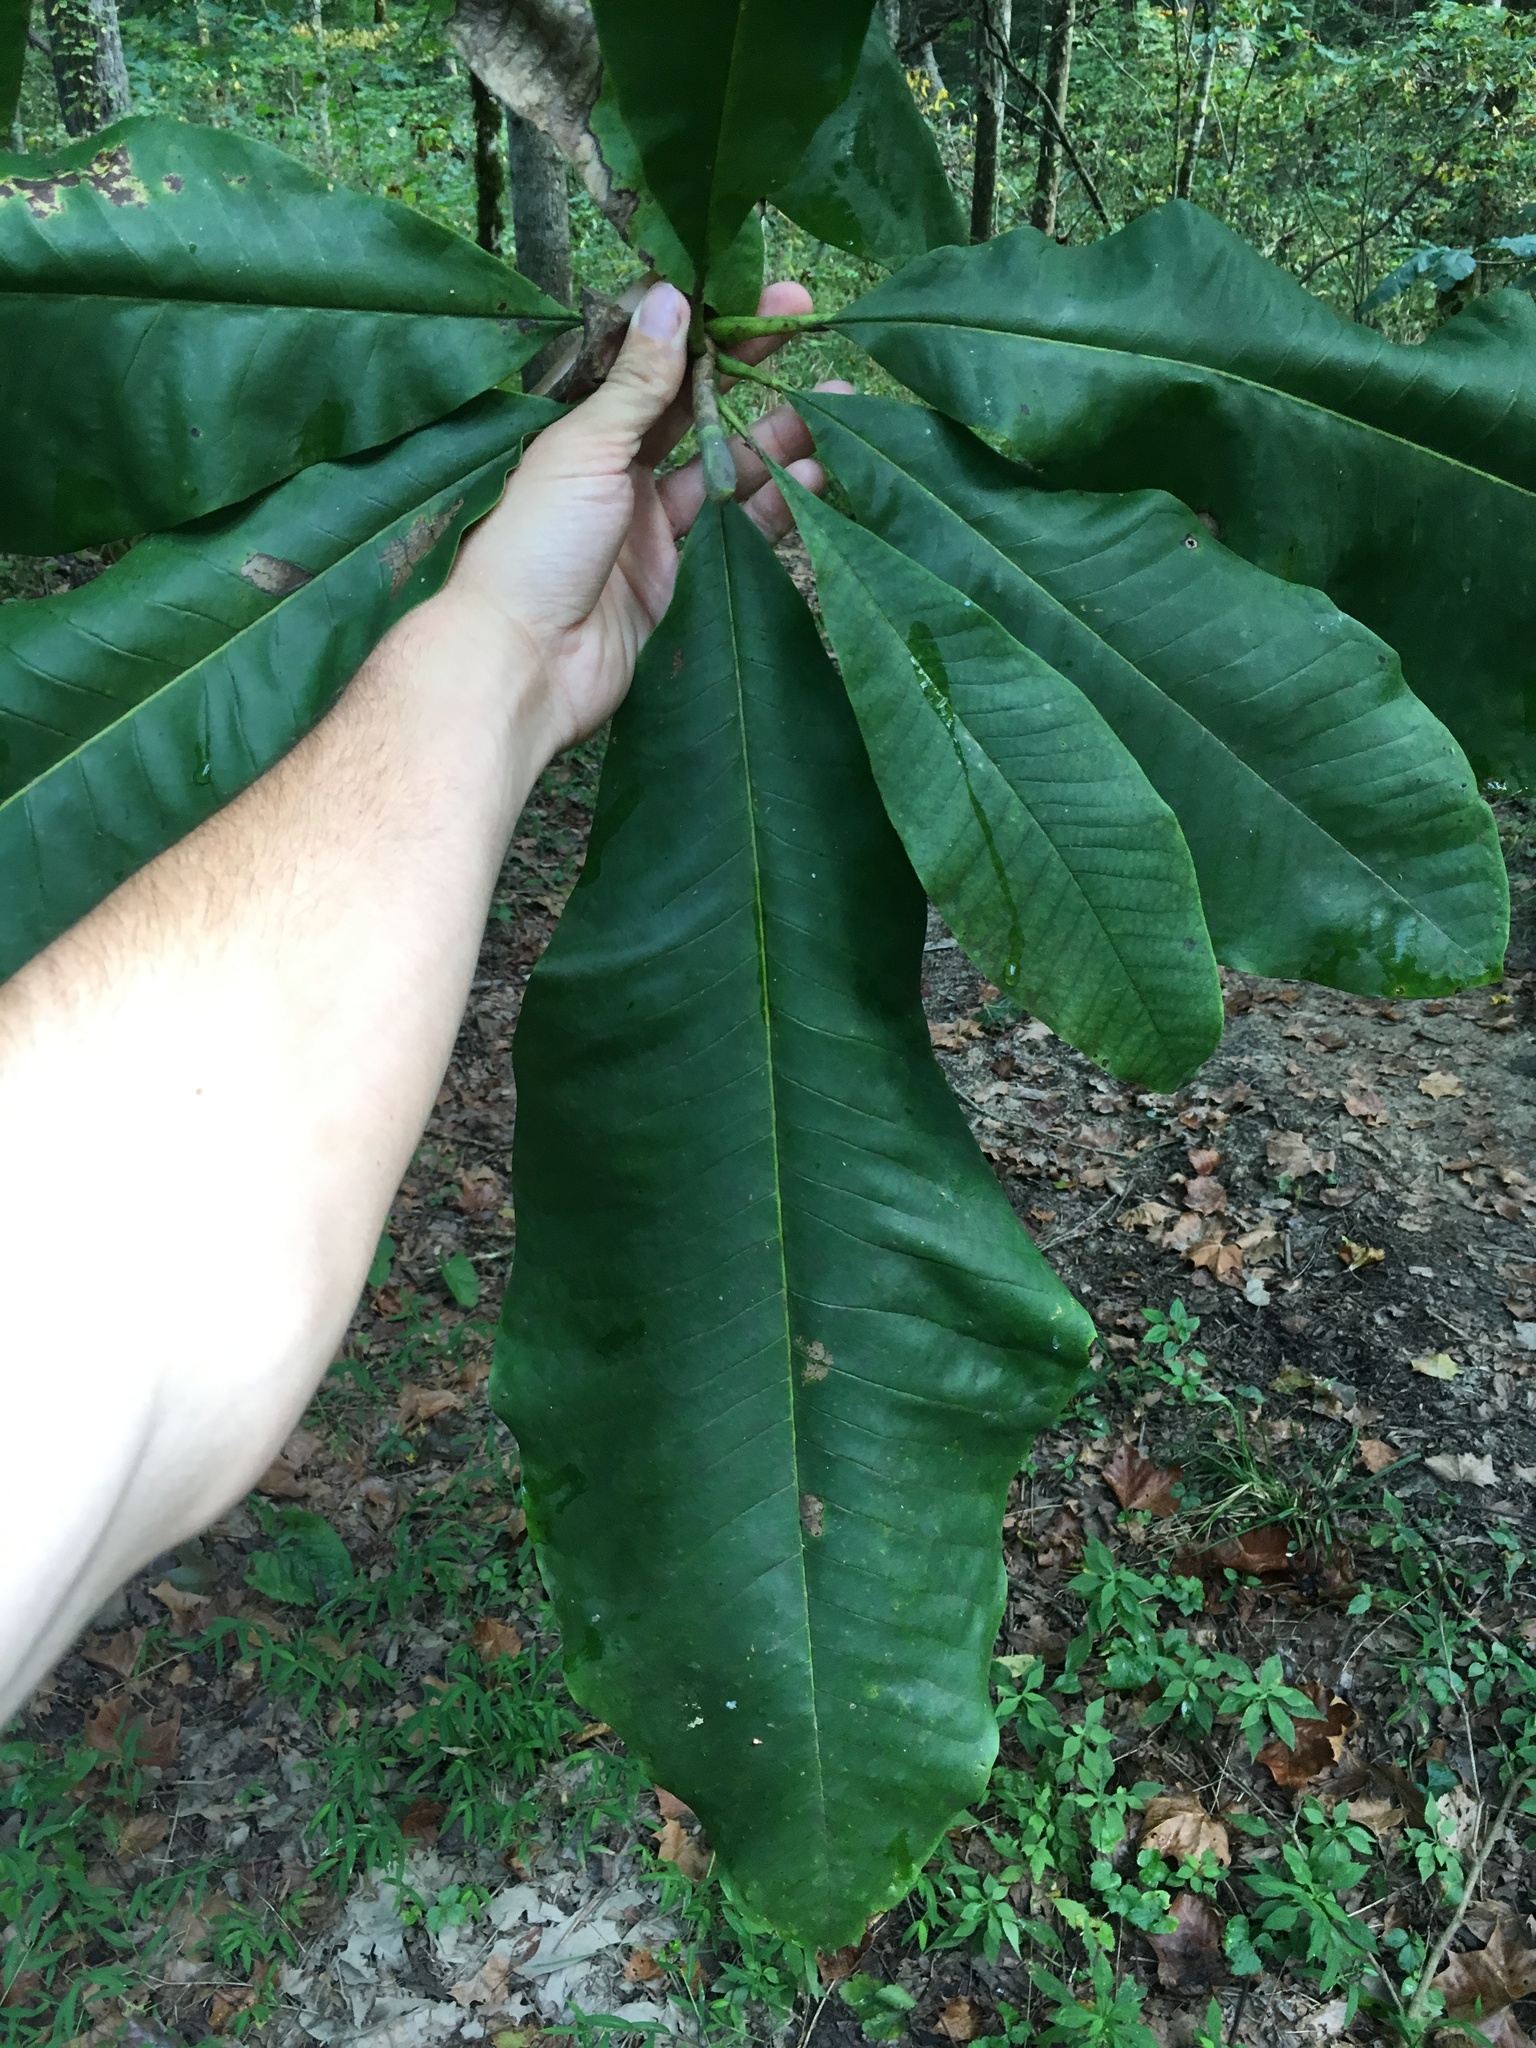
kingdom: Plantae
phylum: Tracheophyta
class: Magnoliopsida
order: Magnoliales
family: Magnoliaceae
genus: Magnolia
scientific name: Magnolia tripetala
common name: Umbrella magnolia
